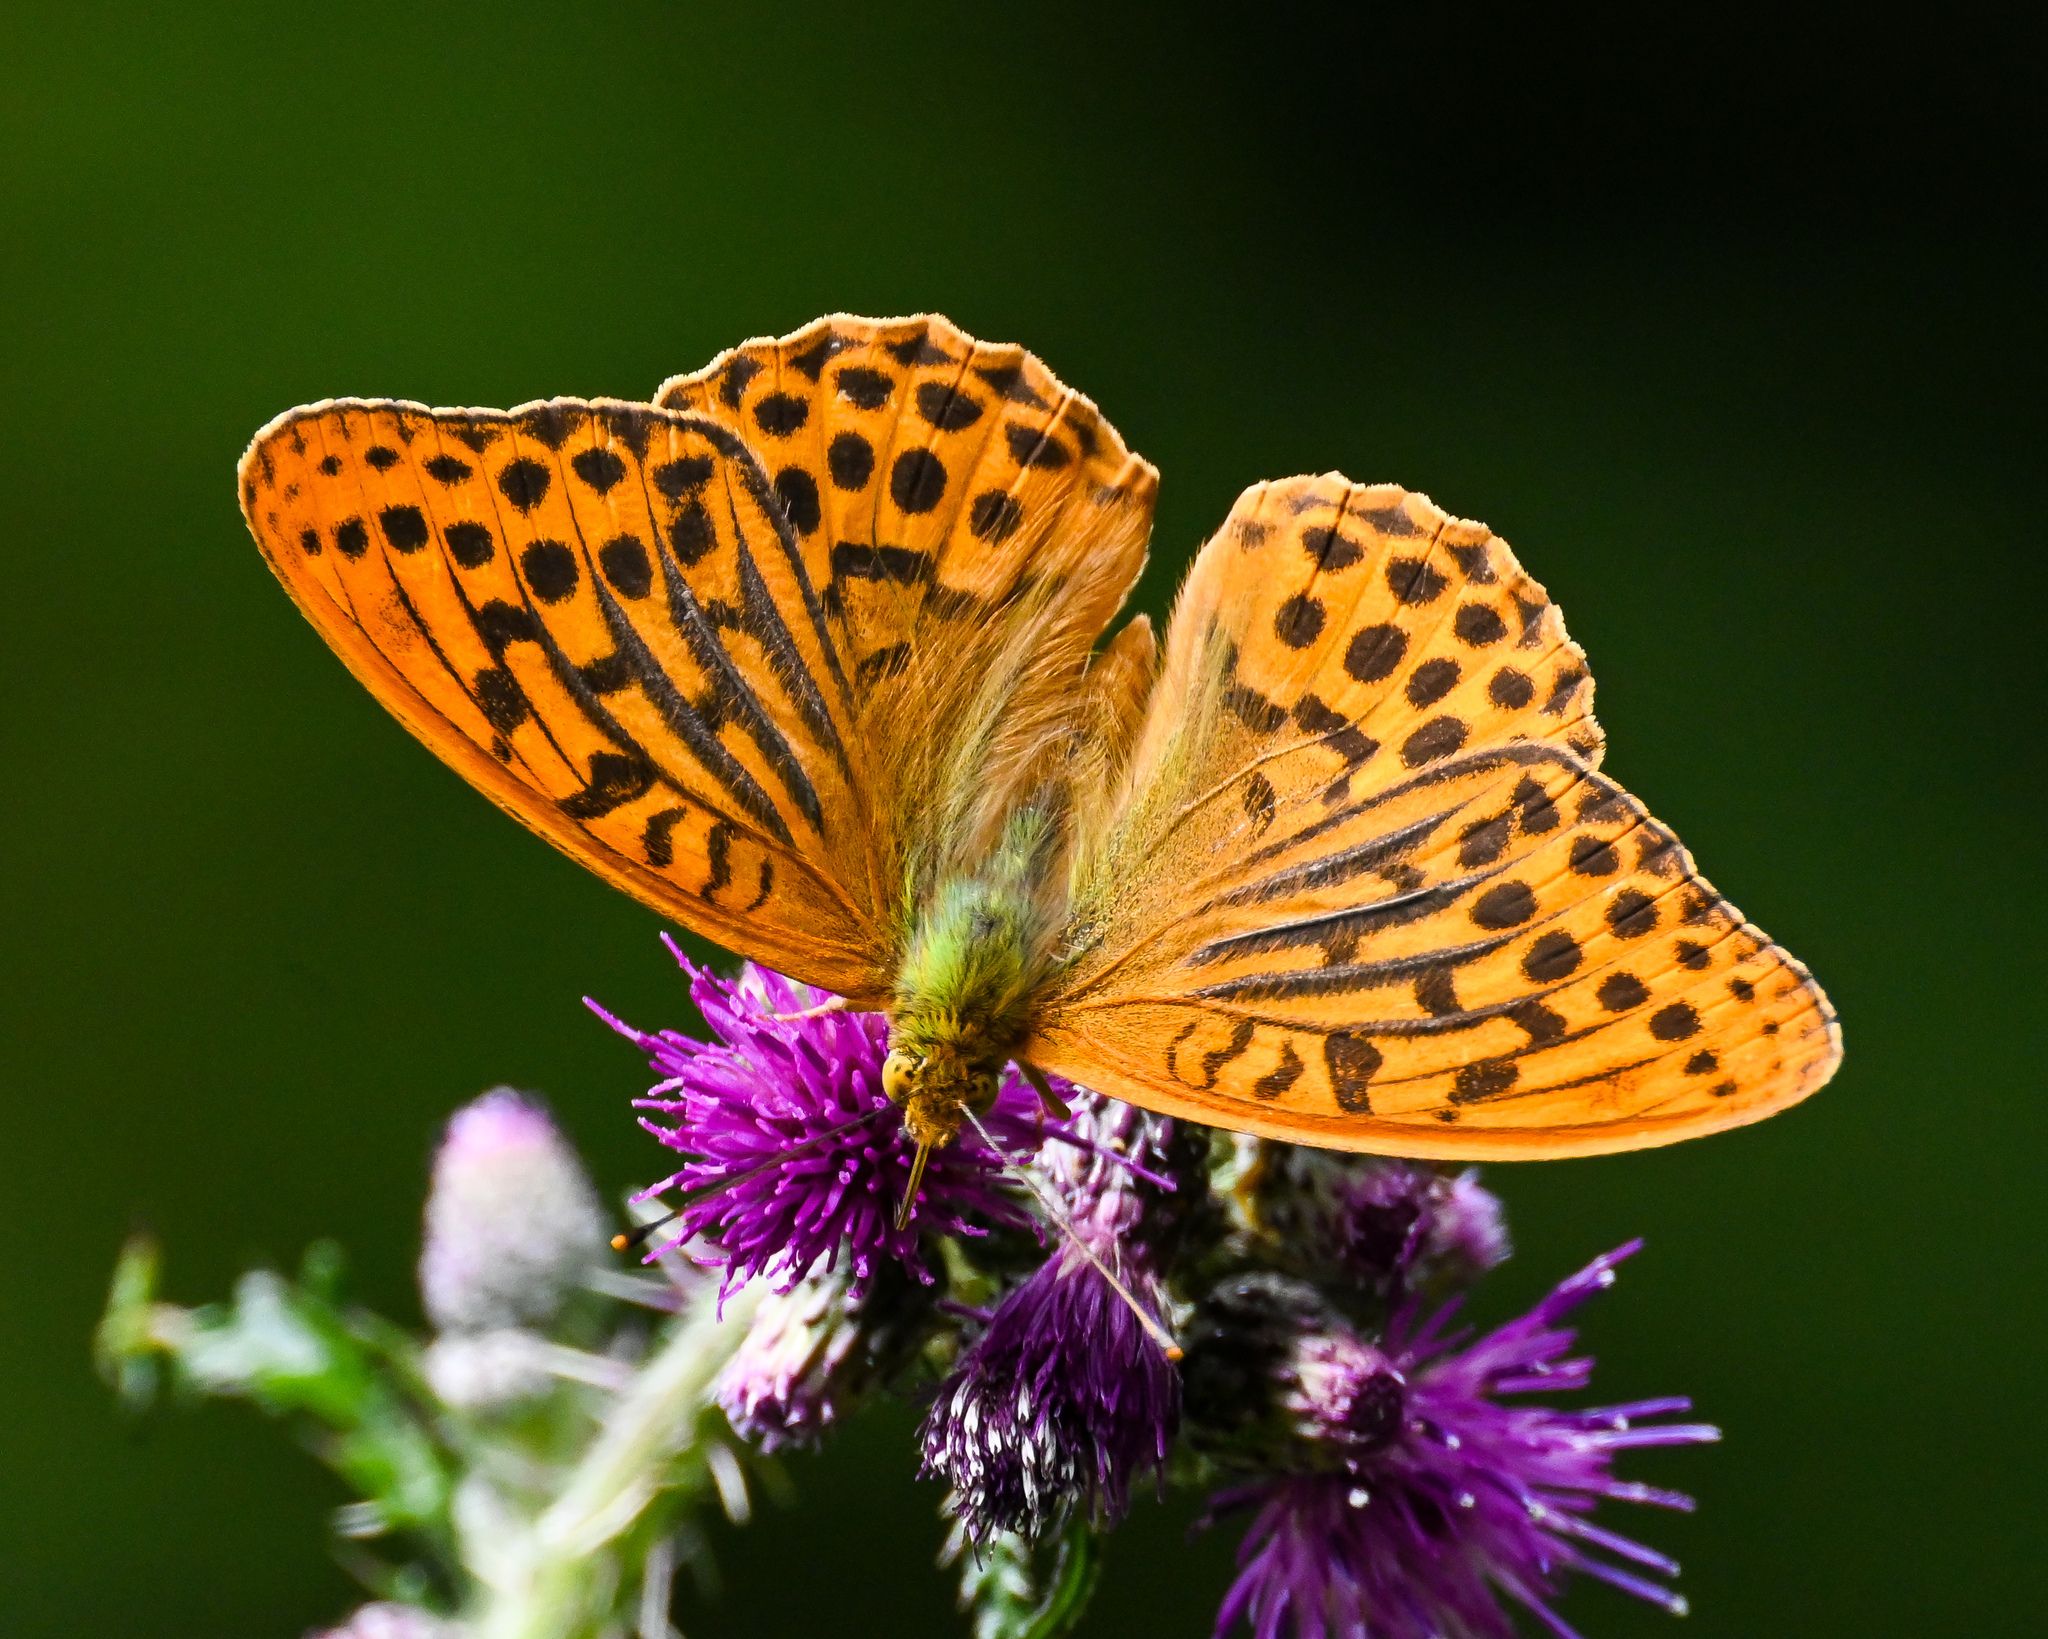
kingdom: Animalia
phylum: Arthropoda
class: Insecta
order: Lepidoptera
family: Nymphalidae
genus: Argynnis
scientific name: Argynnis paphia
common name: Silver-washed fritillary
